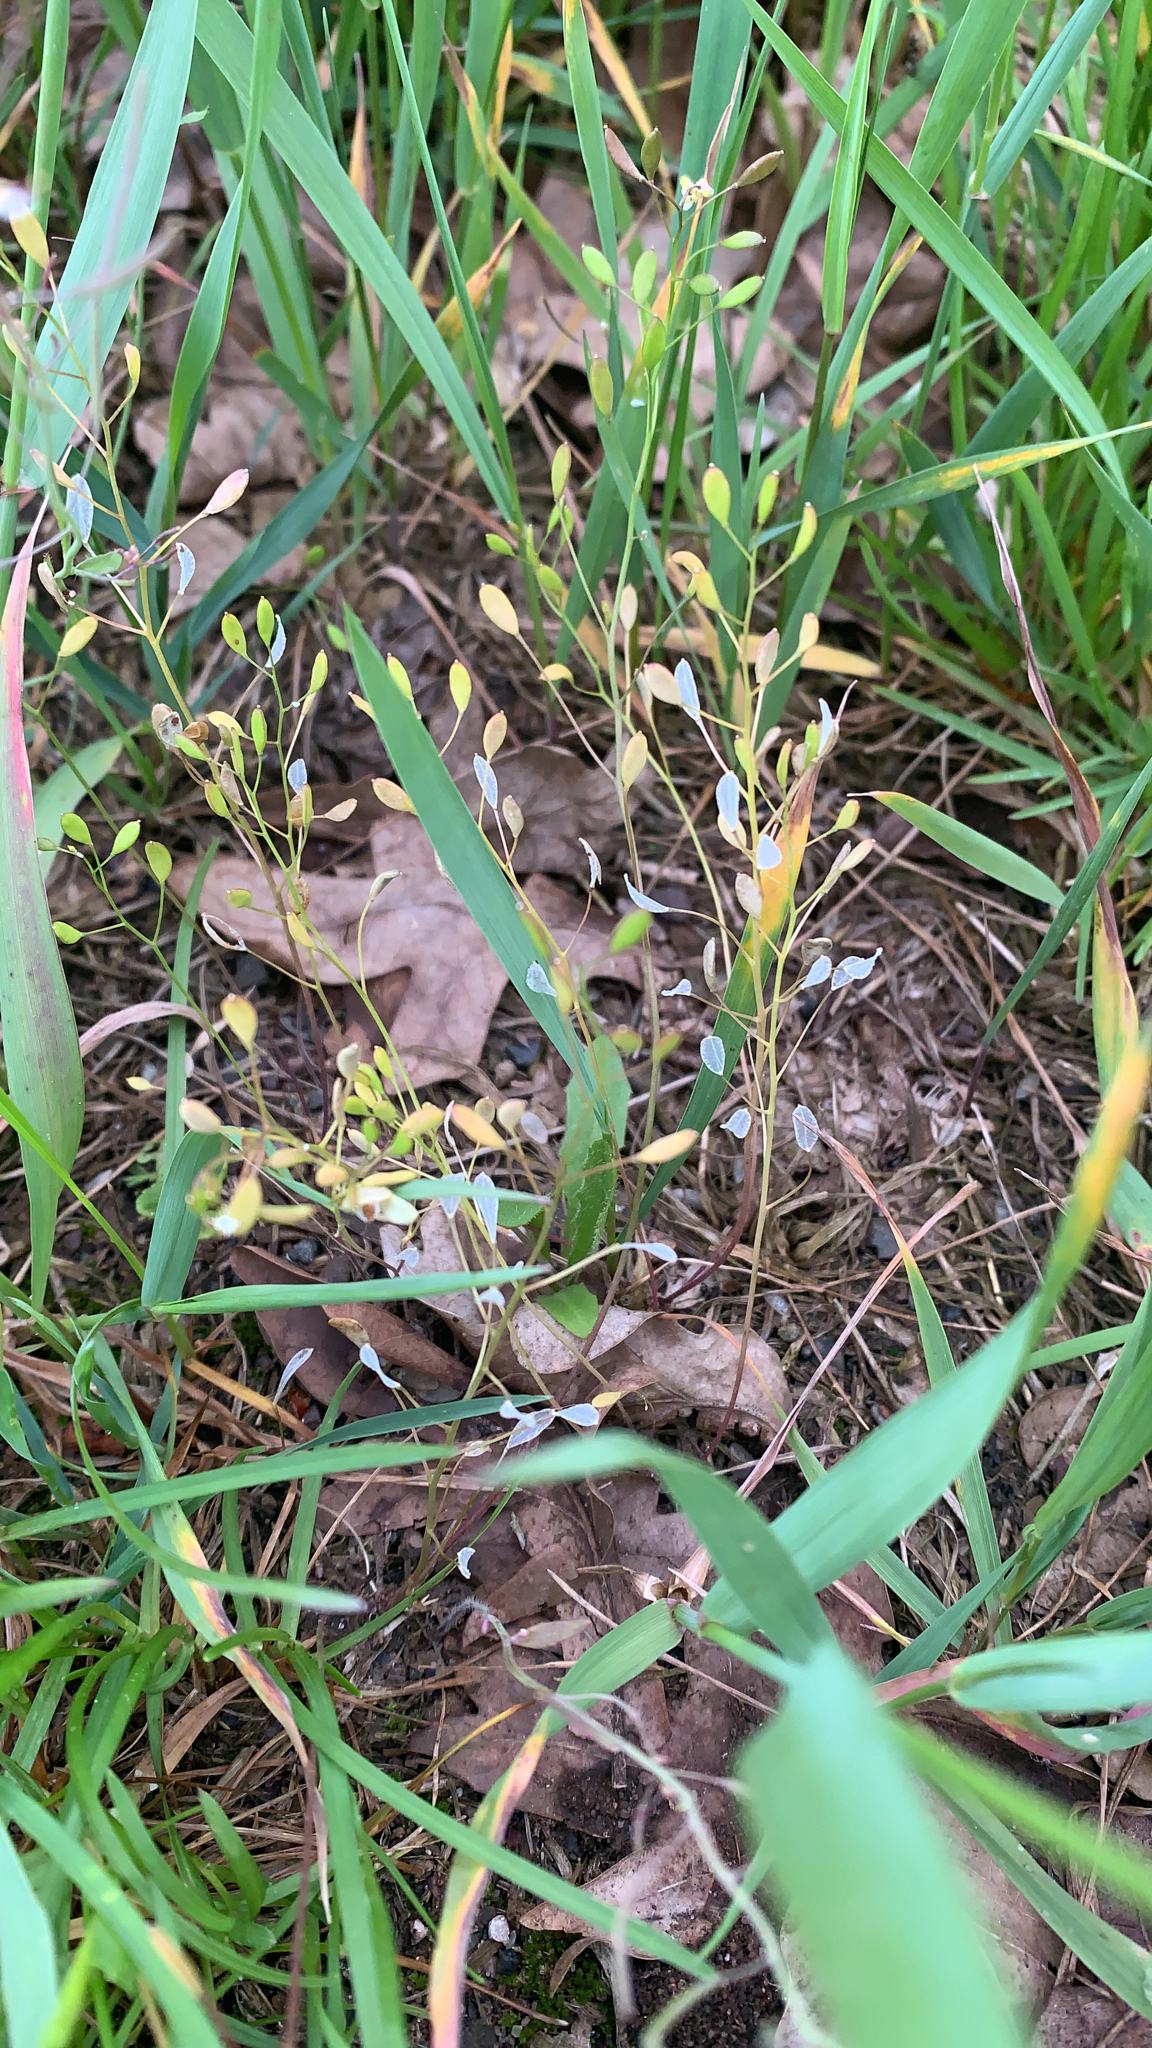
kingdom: Plantae
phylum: Tracheophyta
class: Magnoliopsida
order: Brassicales
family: Brassicaceae
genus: Draba
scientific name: Draba verna
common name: Spring draba
